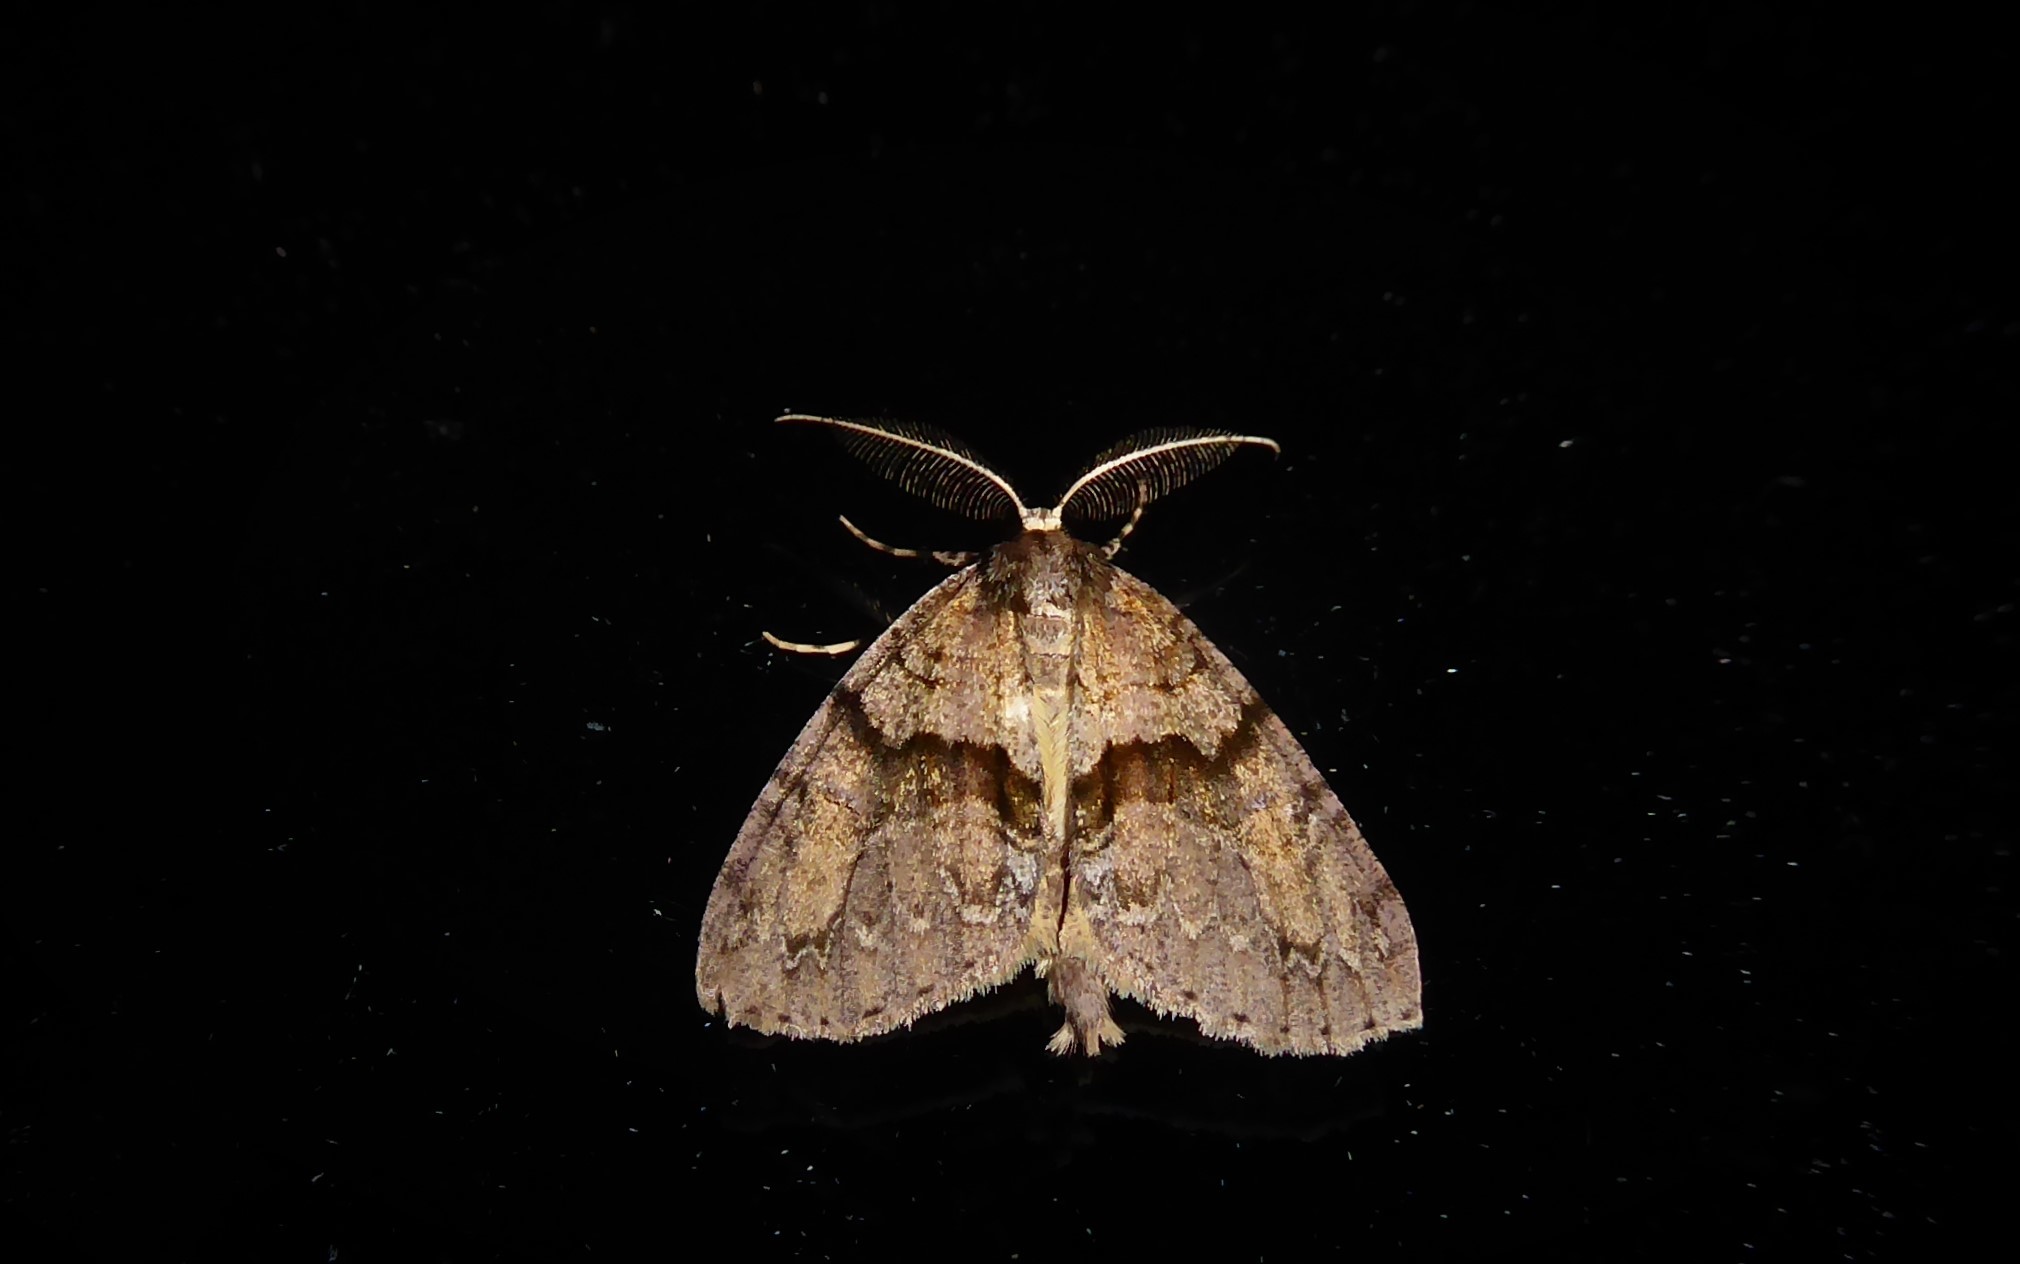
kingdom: Animalia
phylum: Arthropoda
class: Insecta
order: Lepidoptera
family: Geometridae
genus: Pseudocoremia
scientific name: Pseudocoremia suavis
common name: Common forest looper
